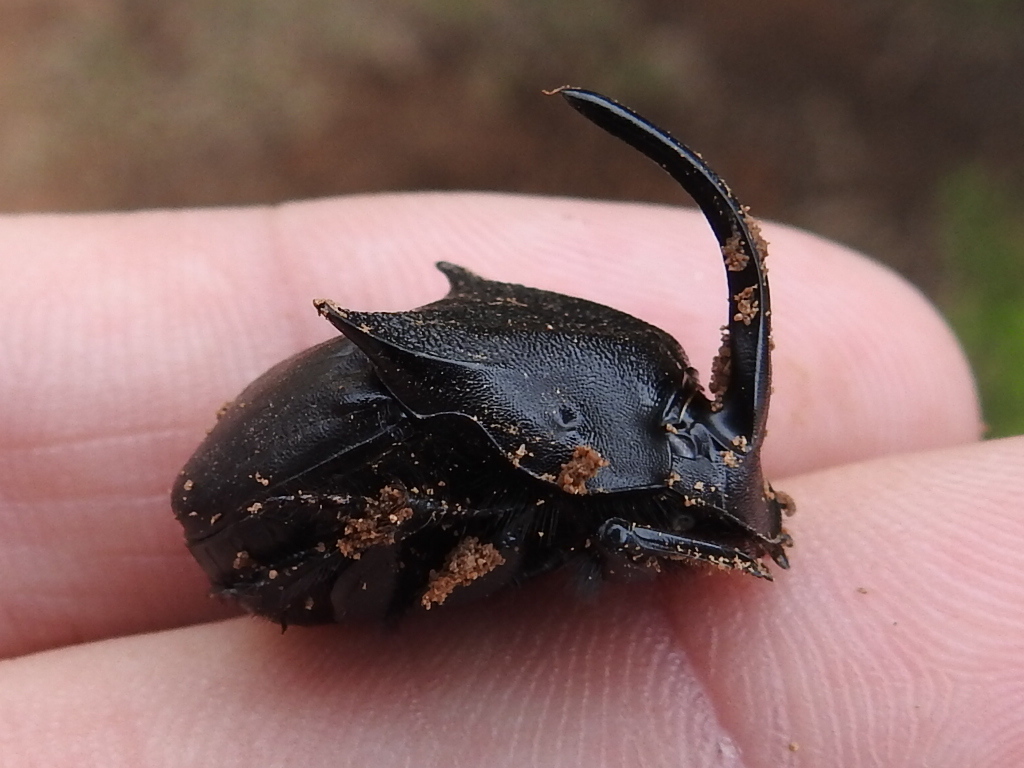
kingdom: Animalia
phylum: Arthropoda
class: Insecta
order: Coleoptera
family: Scarabaeidae
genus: Phanaeus
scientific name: Phanaeus texensis
